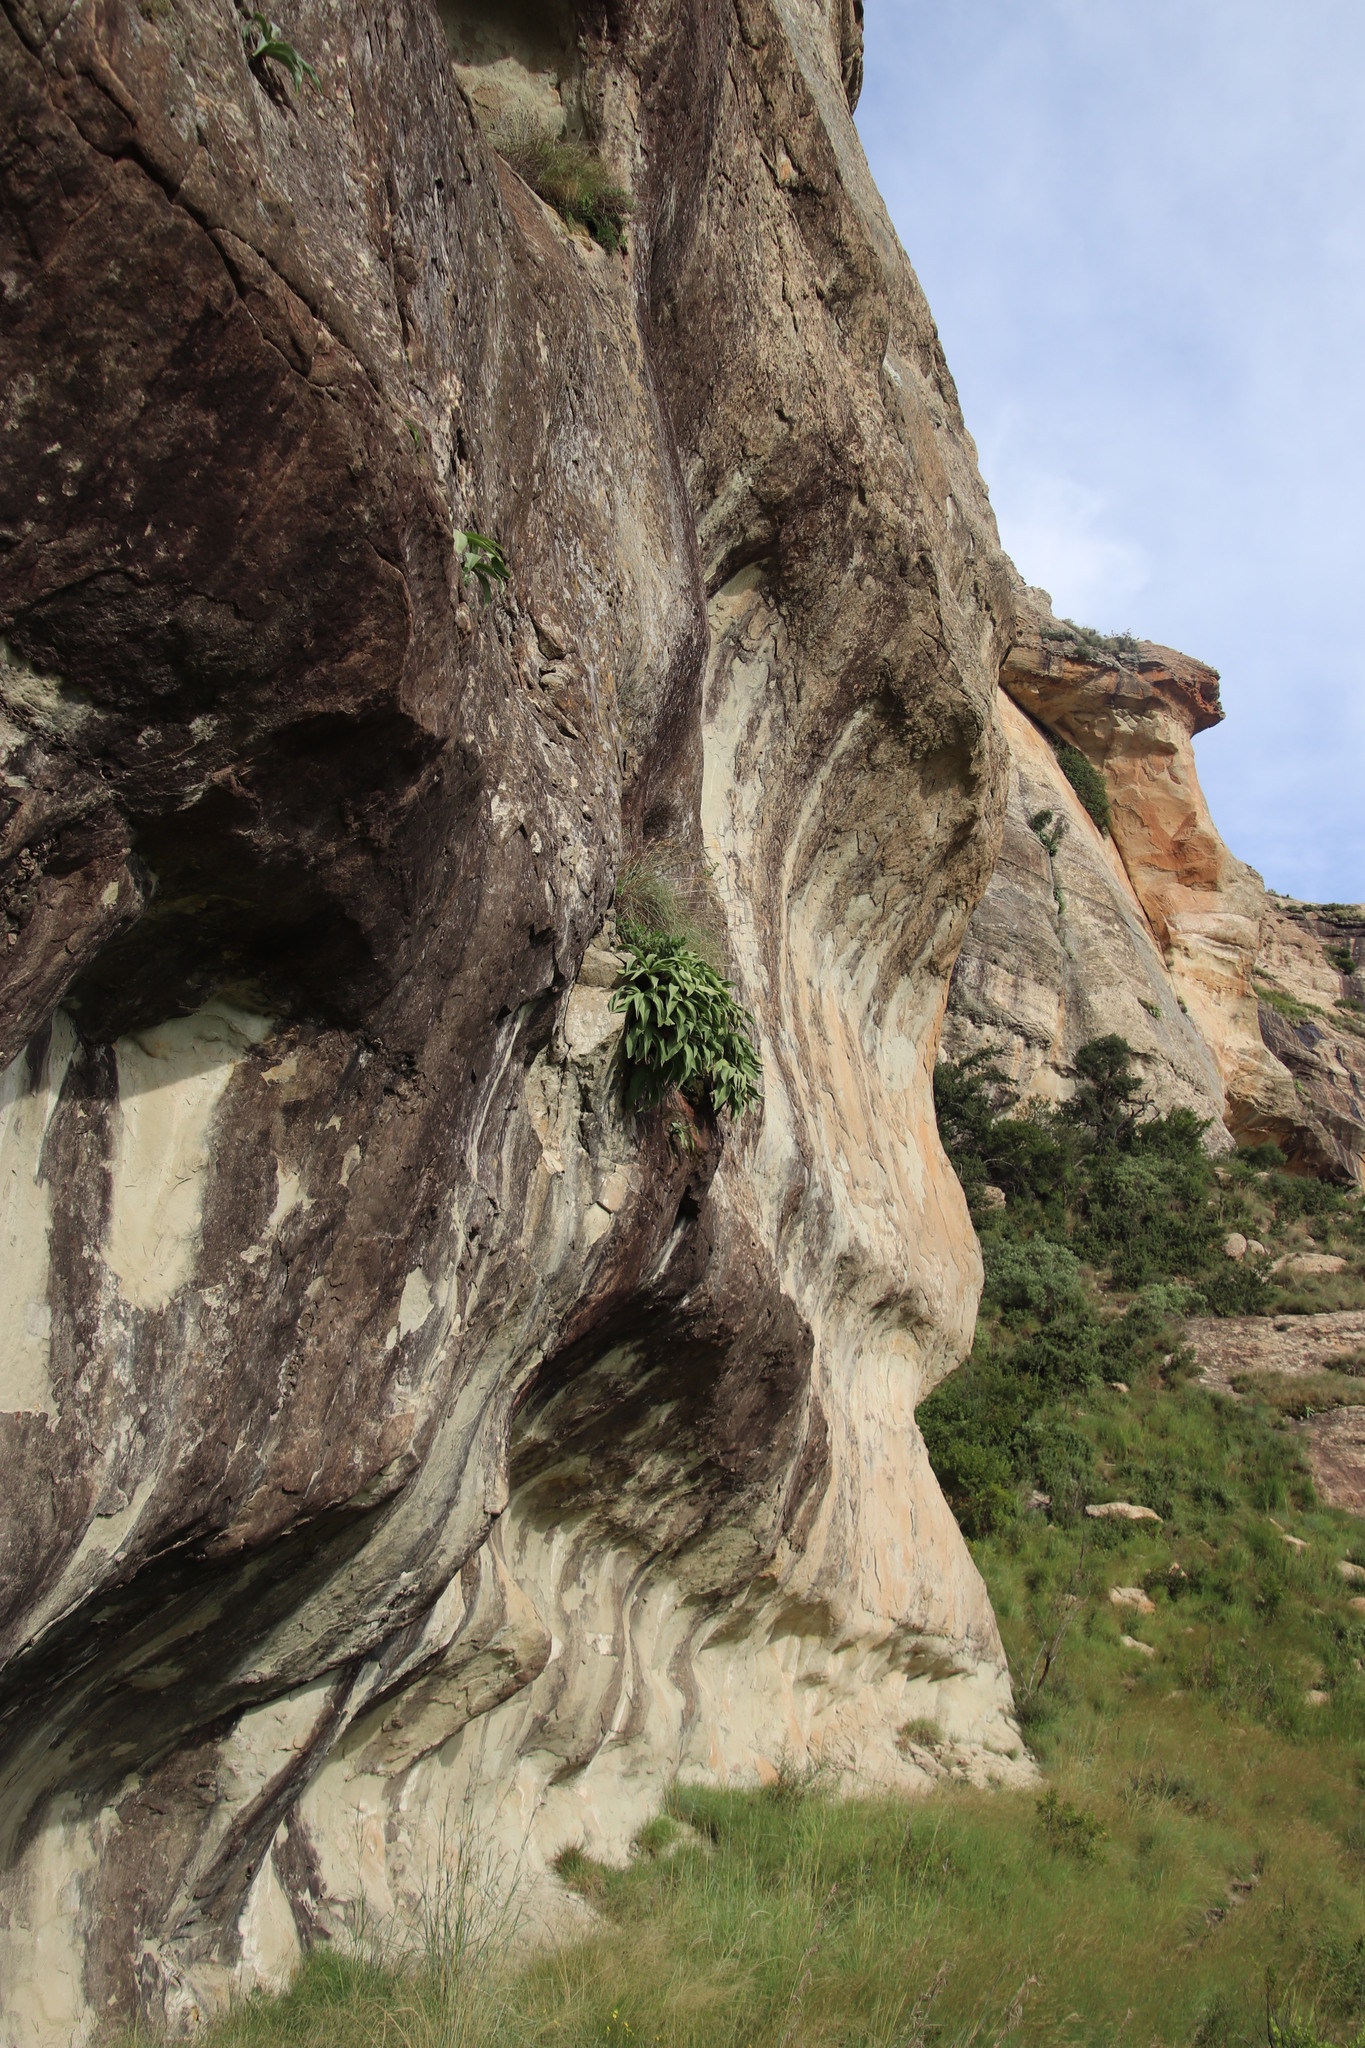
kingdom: Plantae
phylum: Tracheophyta
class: Liliopsida
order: Asparagales
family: Asparagaceae
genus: Merwilla
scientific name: Merwilla plumbea
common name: Blue-squill
